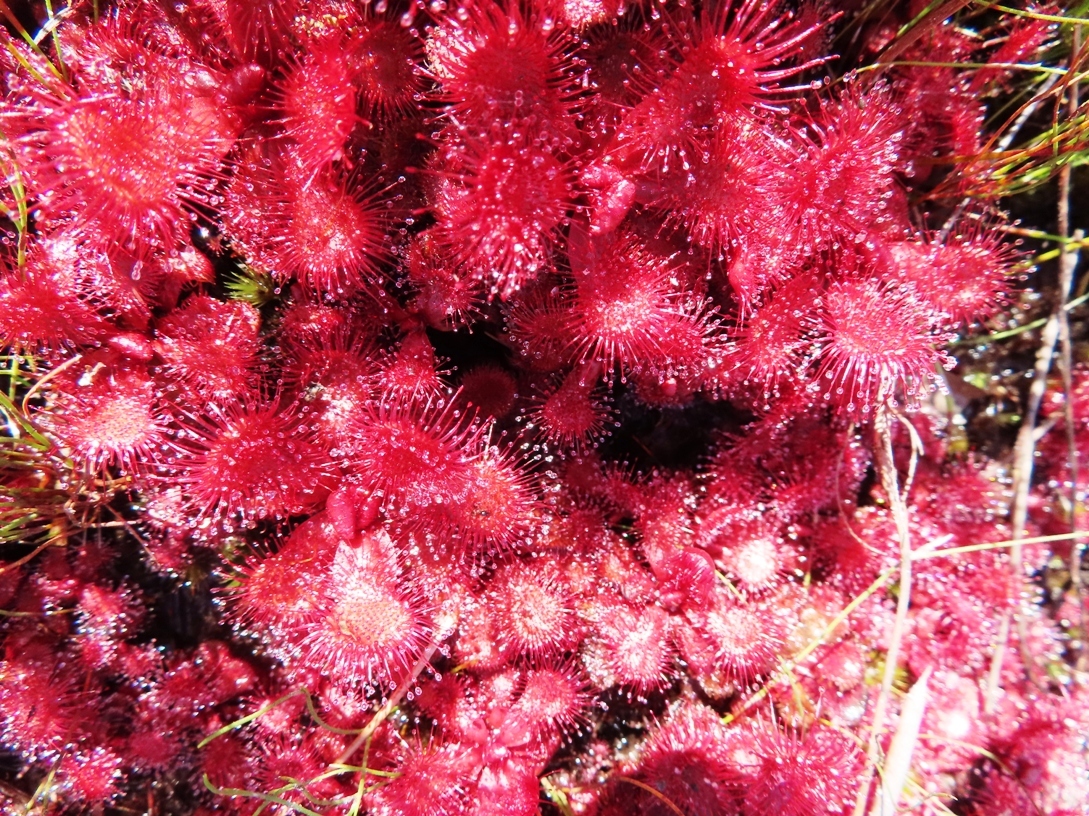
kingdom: Plantae
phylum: Tracheophyta
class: Magnoliopsida
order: Caryophyllales
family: Droseraceae
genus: Drosera
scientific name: Drosera slackii
